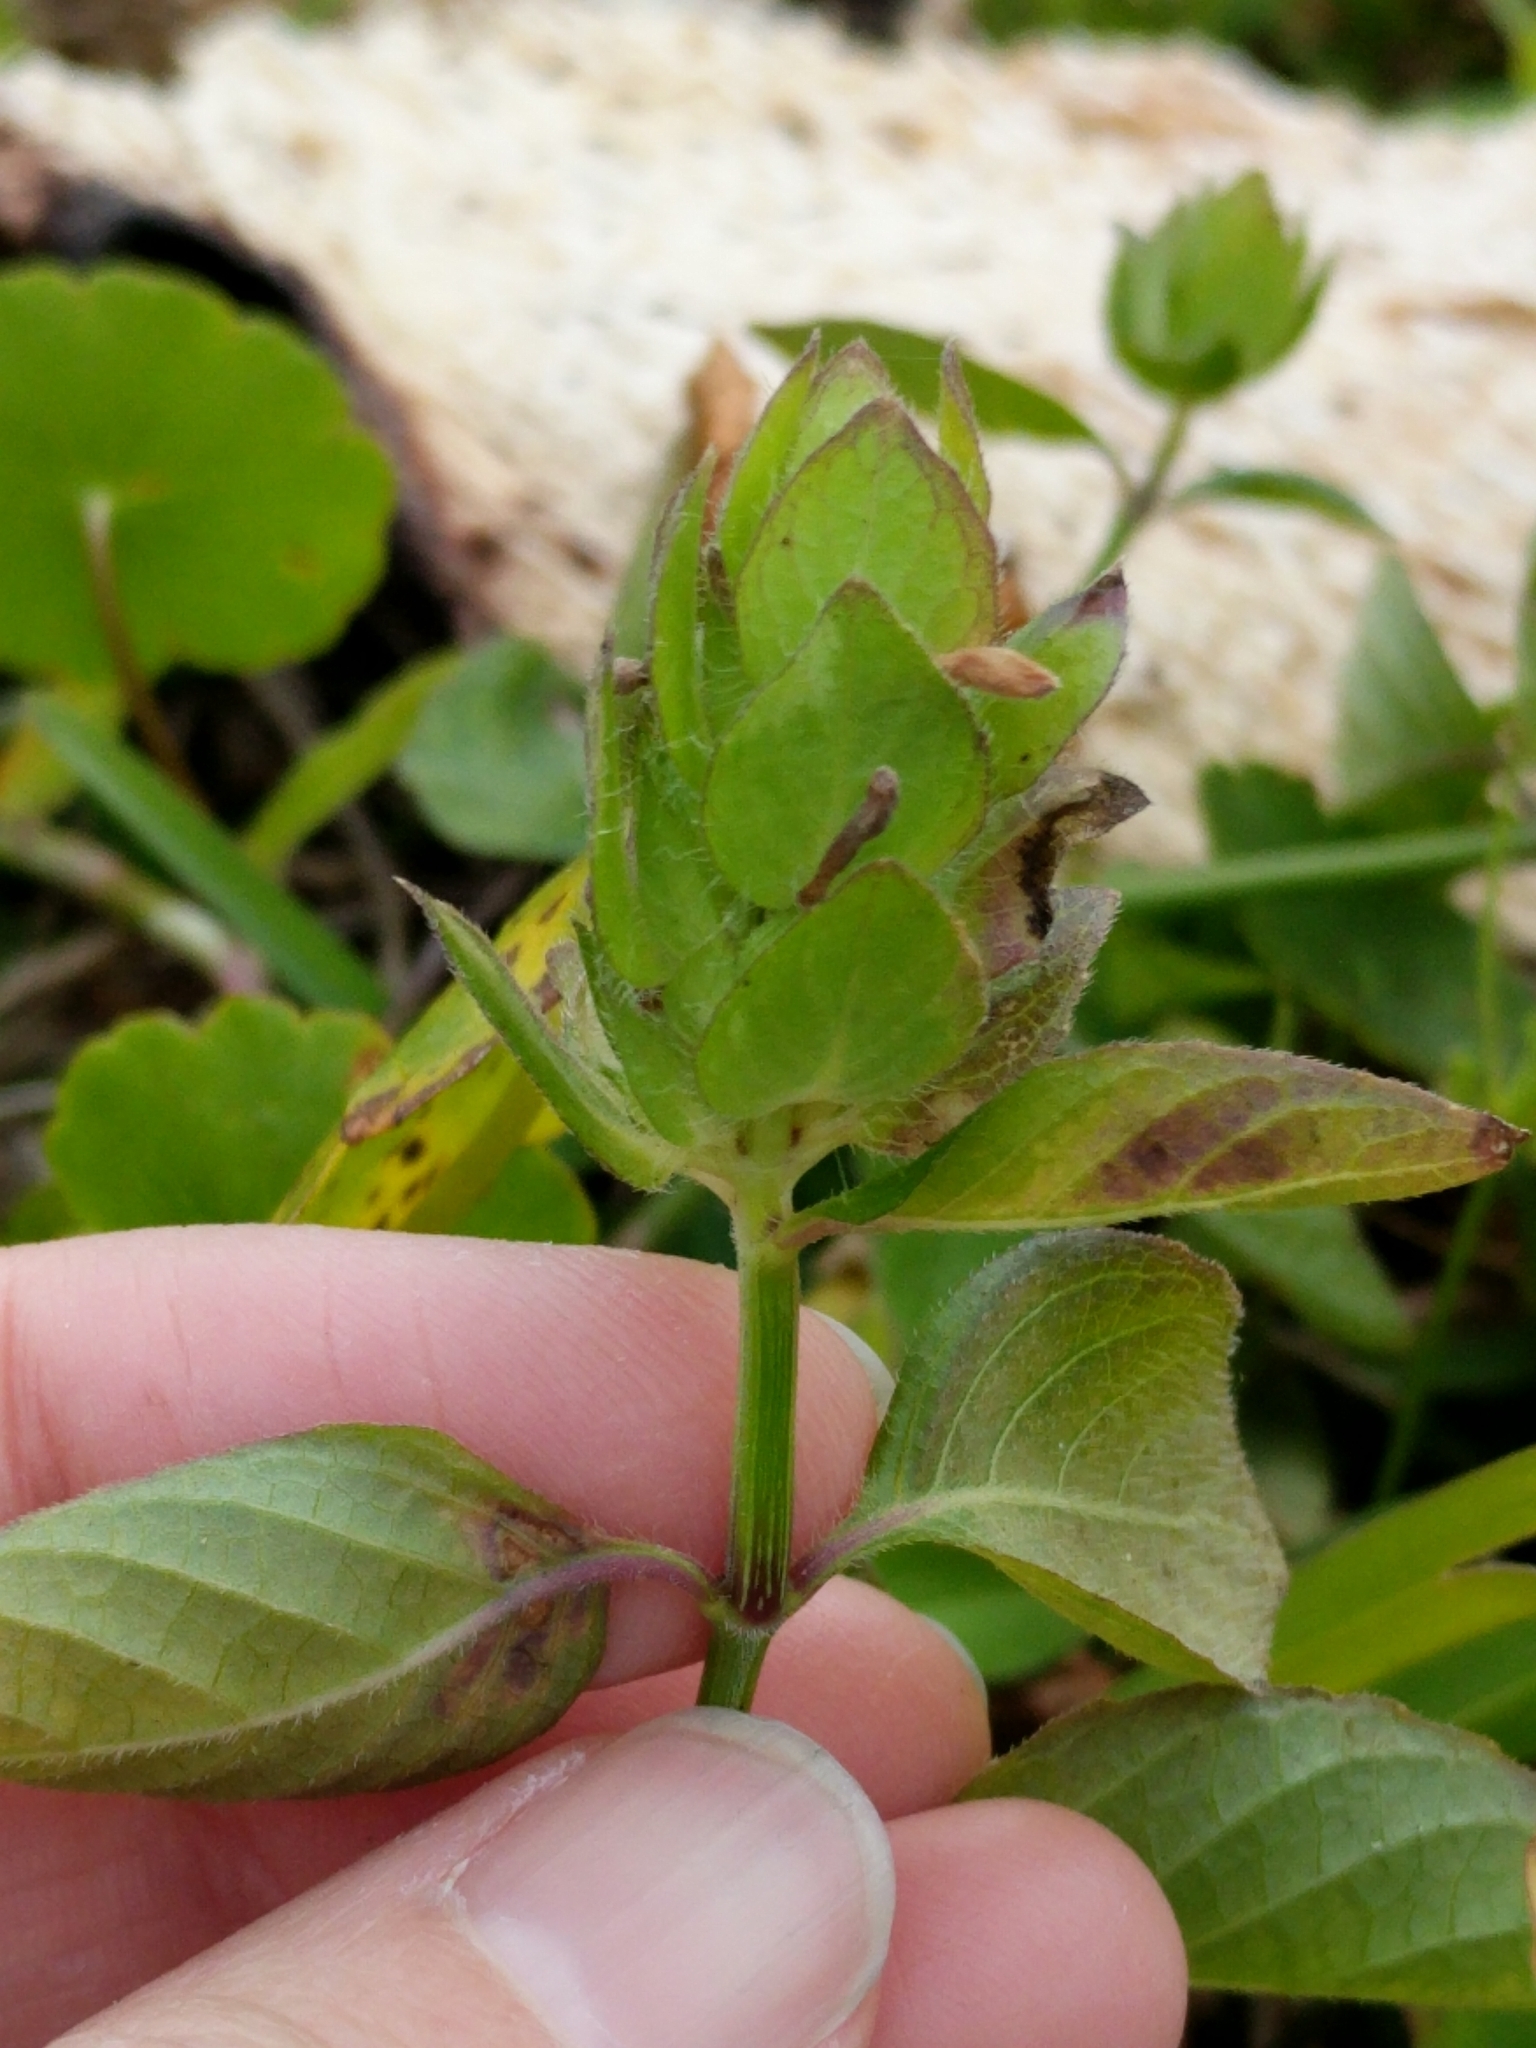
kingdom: Plantae
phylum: Tracheophyta
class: Magnoliopsida
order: Lamiales
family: Acanthaceae
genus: Ruellia
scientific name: Ruellia blechum
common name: Browne's blechum
